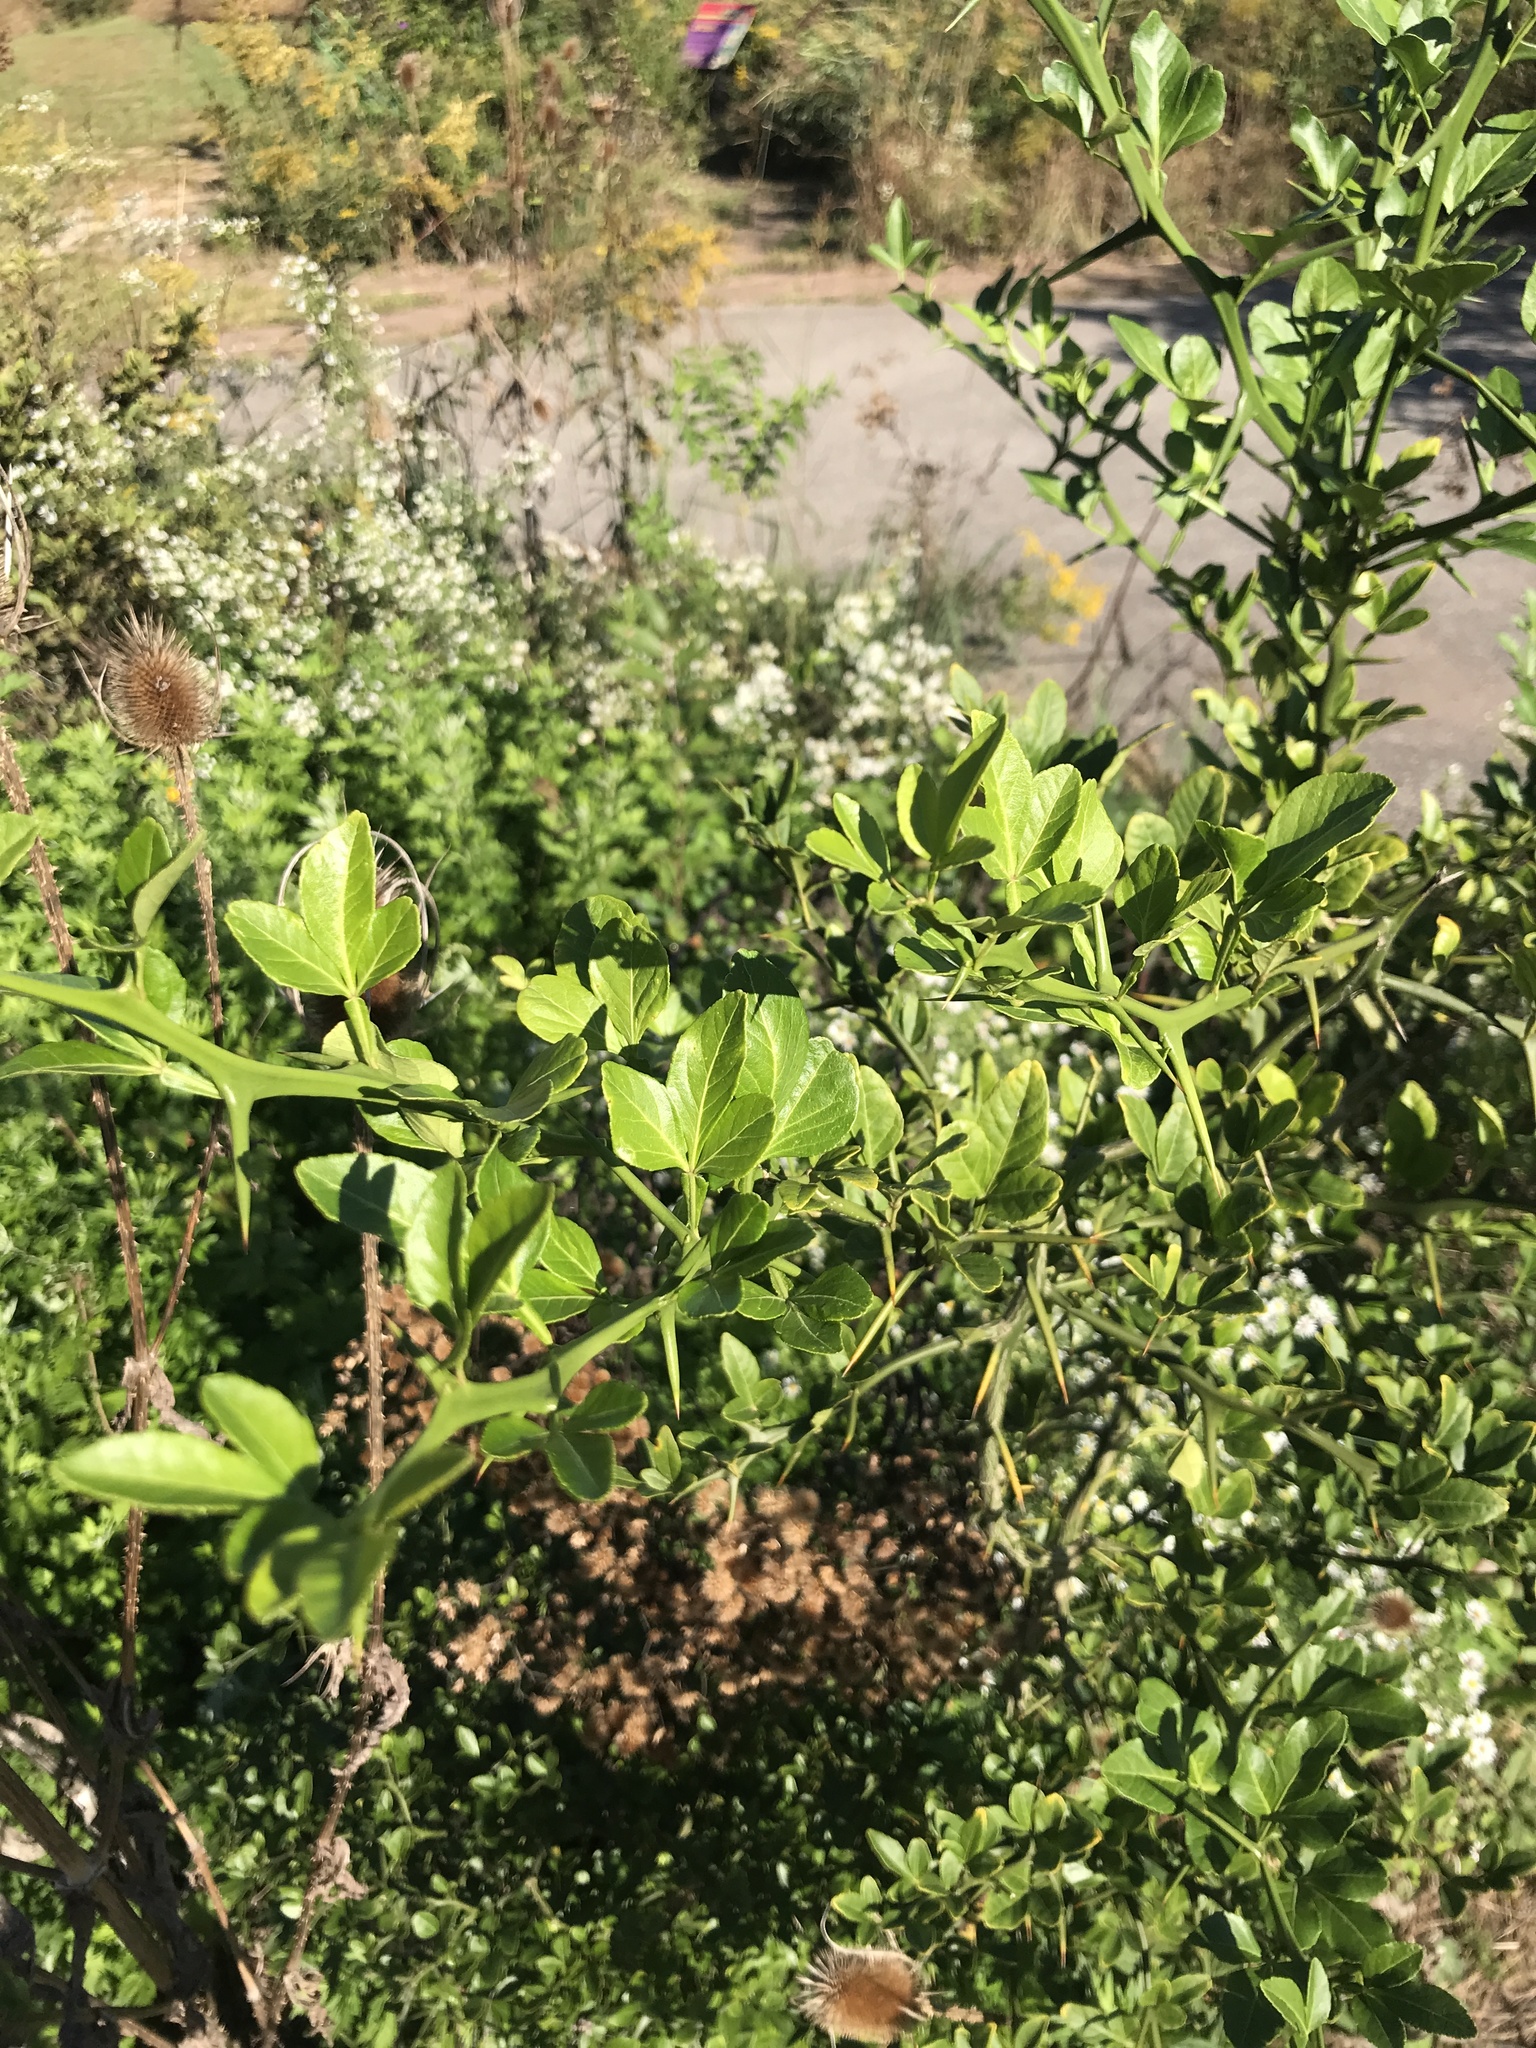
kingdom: Plantae
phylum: Tracheophyta
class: Magnoliopsida
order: Sapindales
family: Rutaceae
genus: Citrus
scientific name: Citrus trifoliata
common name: Japanese bitter-orange
